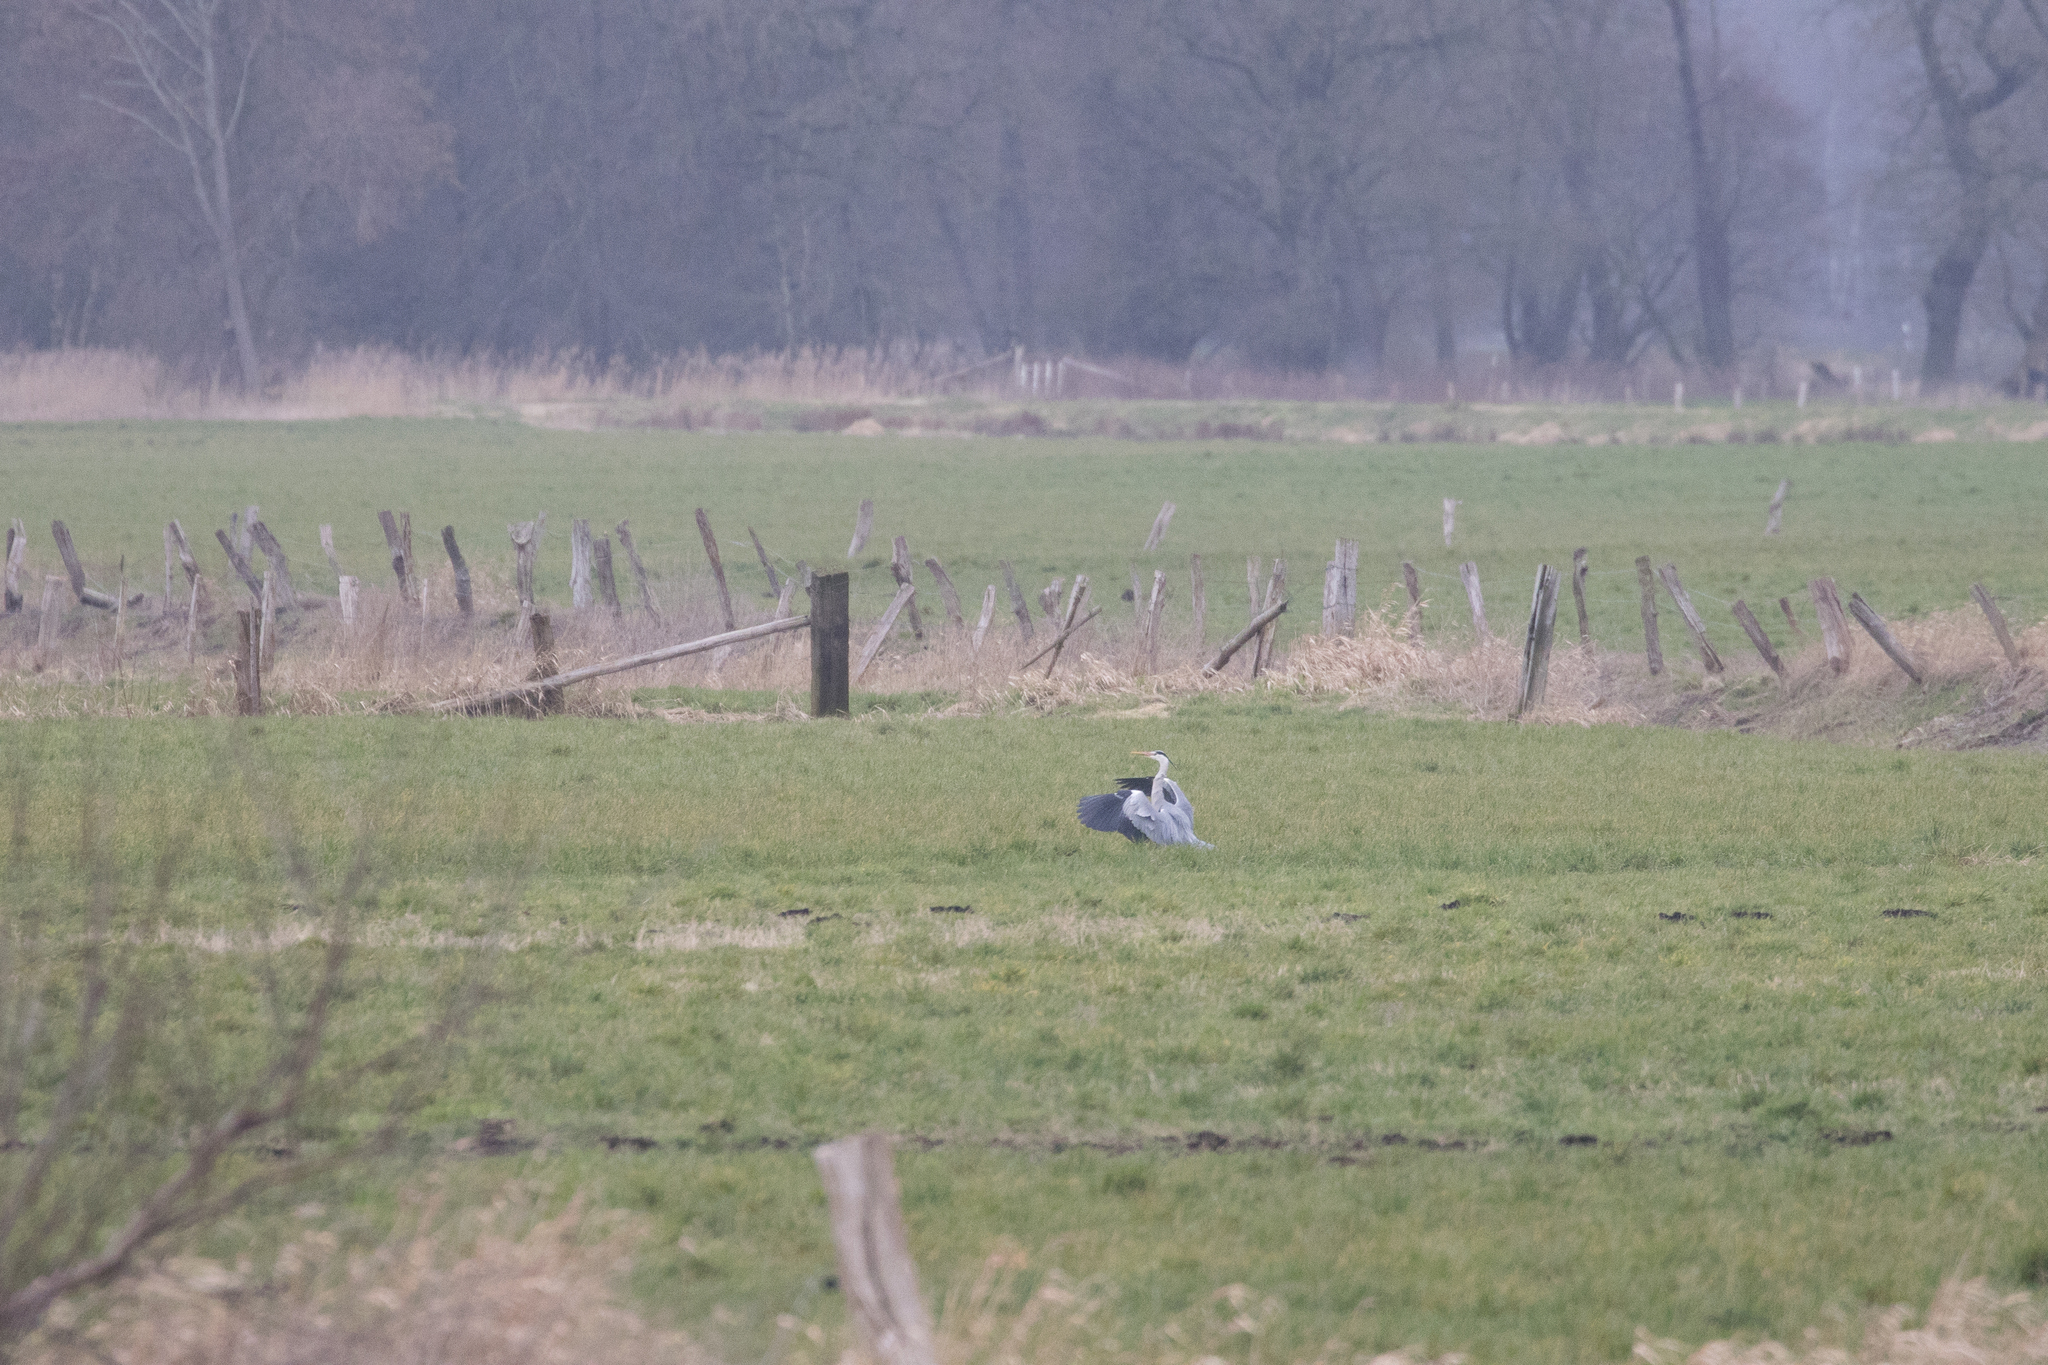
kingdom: Animalia
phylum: Chordata
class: Aves
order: Pelecaniformes
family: Ardeidae
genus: Ardea
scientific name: Ardea cinerea
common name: Grey heron
